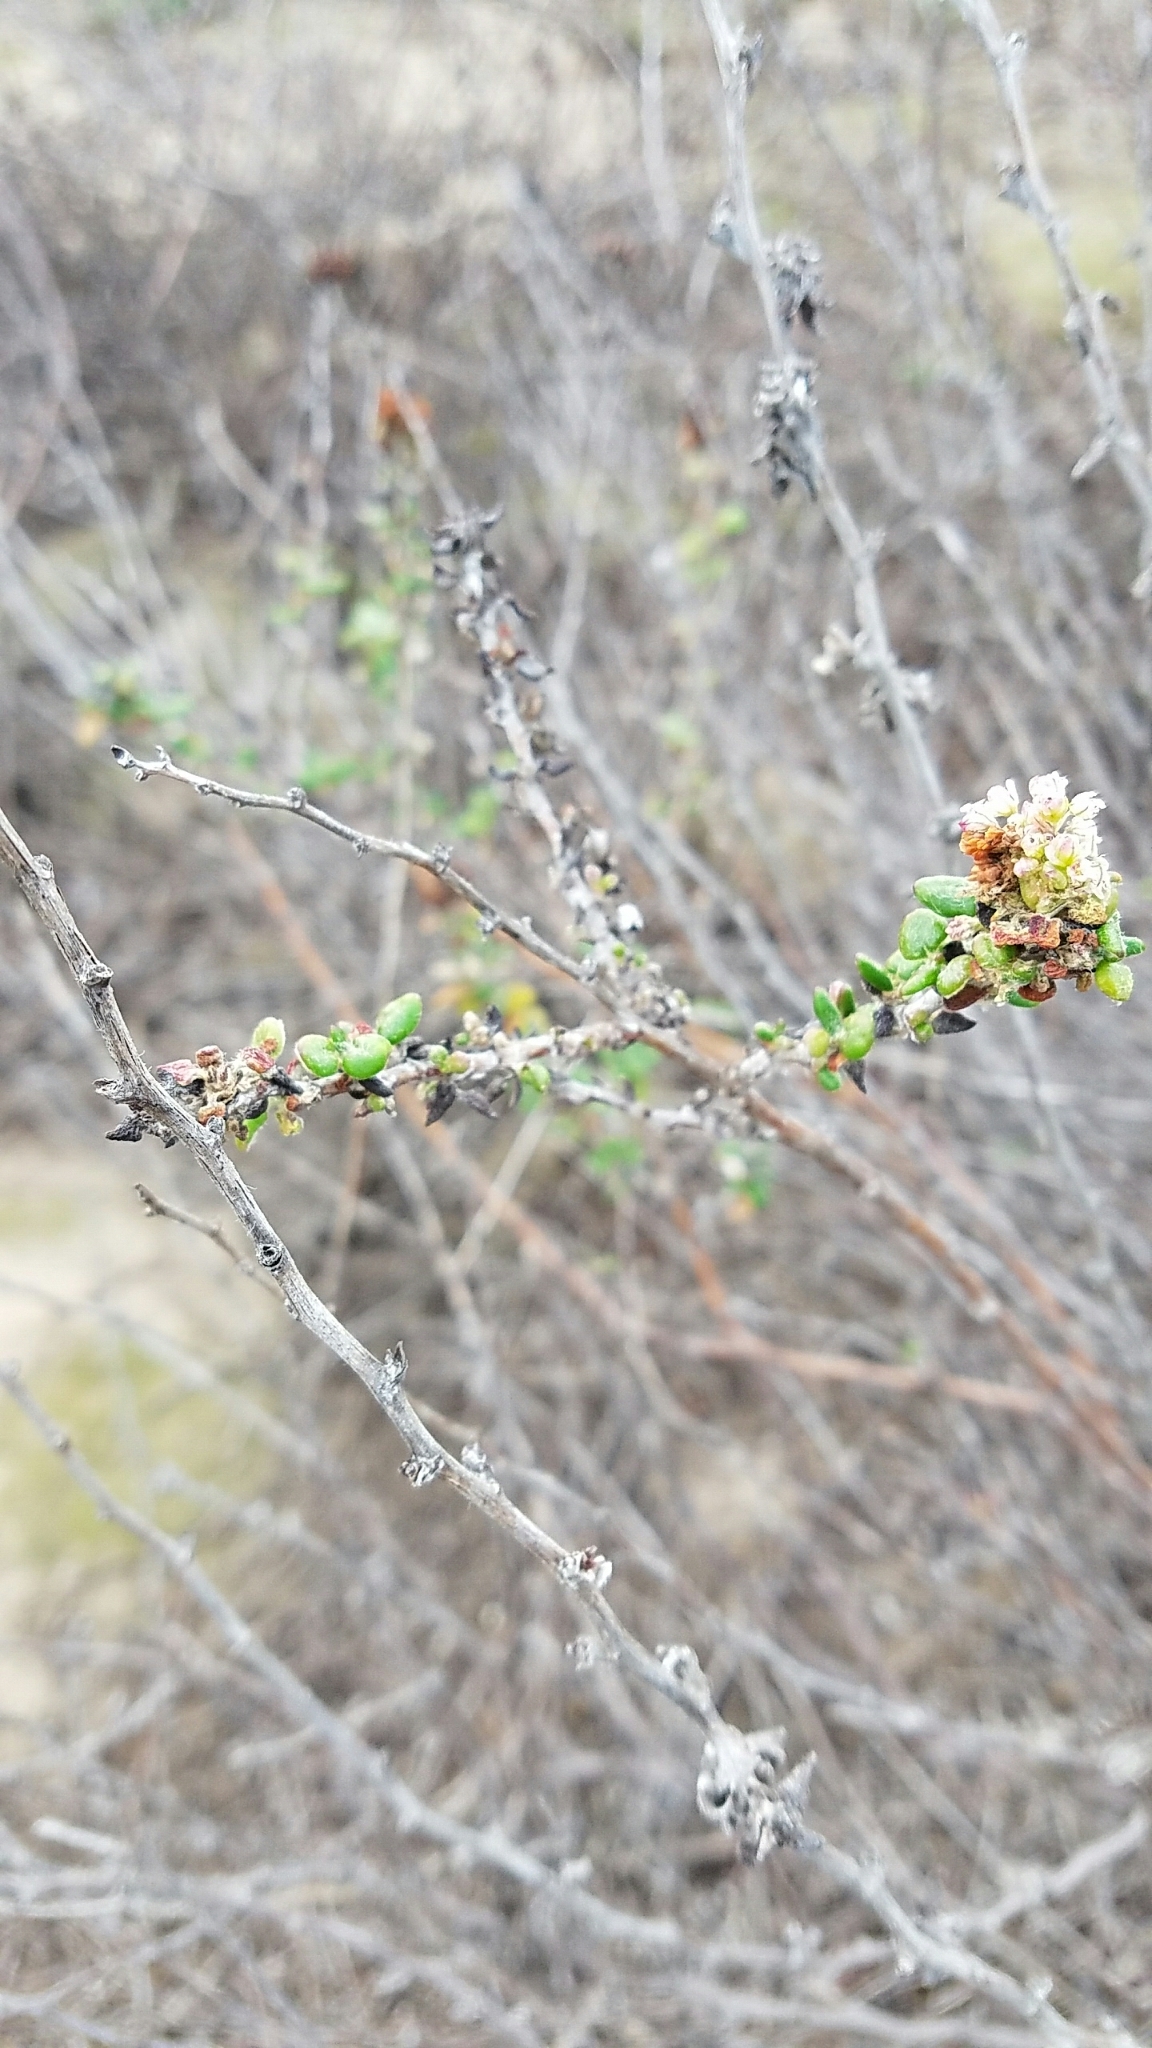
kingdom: Plantae
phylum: Tracheophyta
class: Magnoliopsida
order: Caryophyllales
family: Polygonaceae
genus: Eriogonum
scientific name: Eriogonum parvifolium
